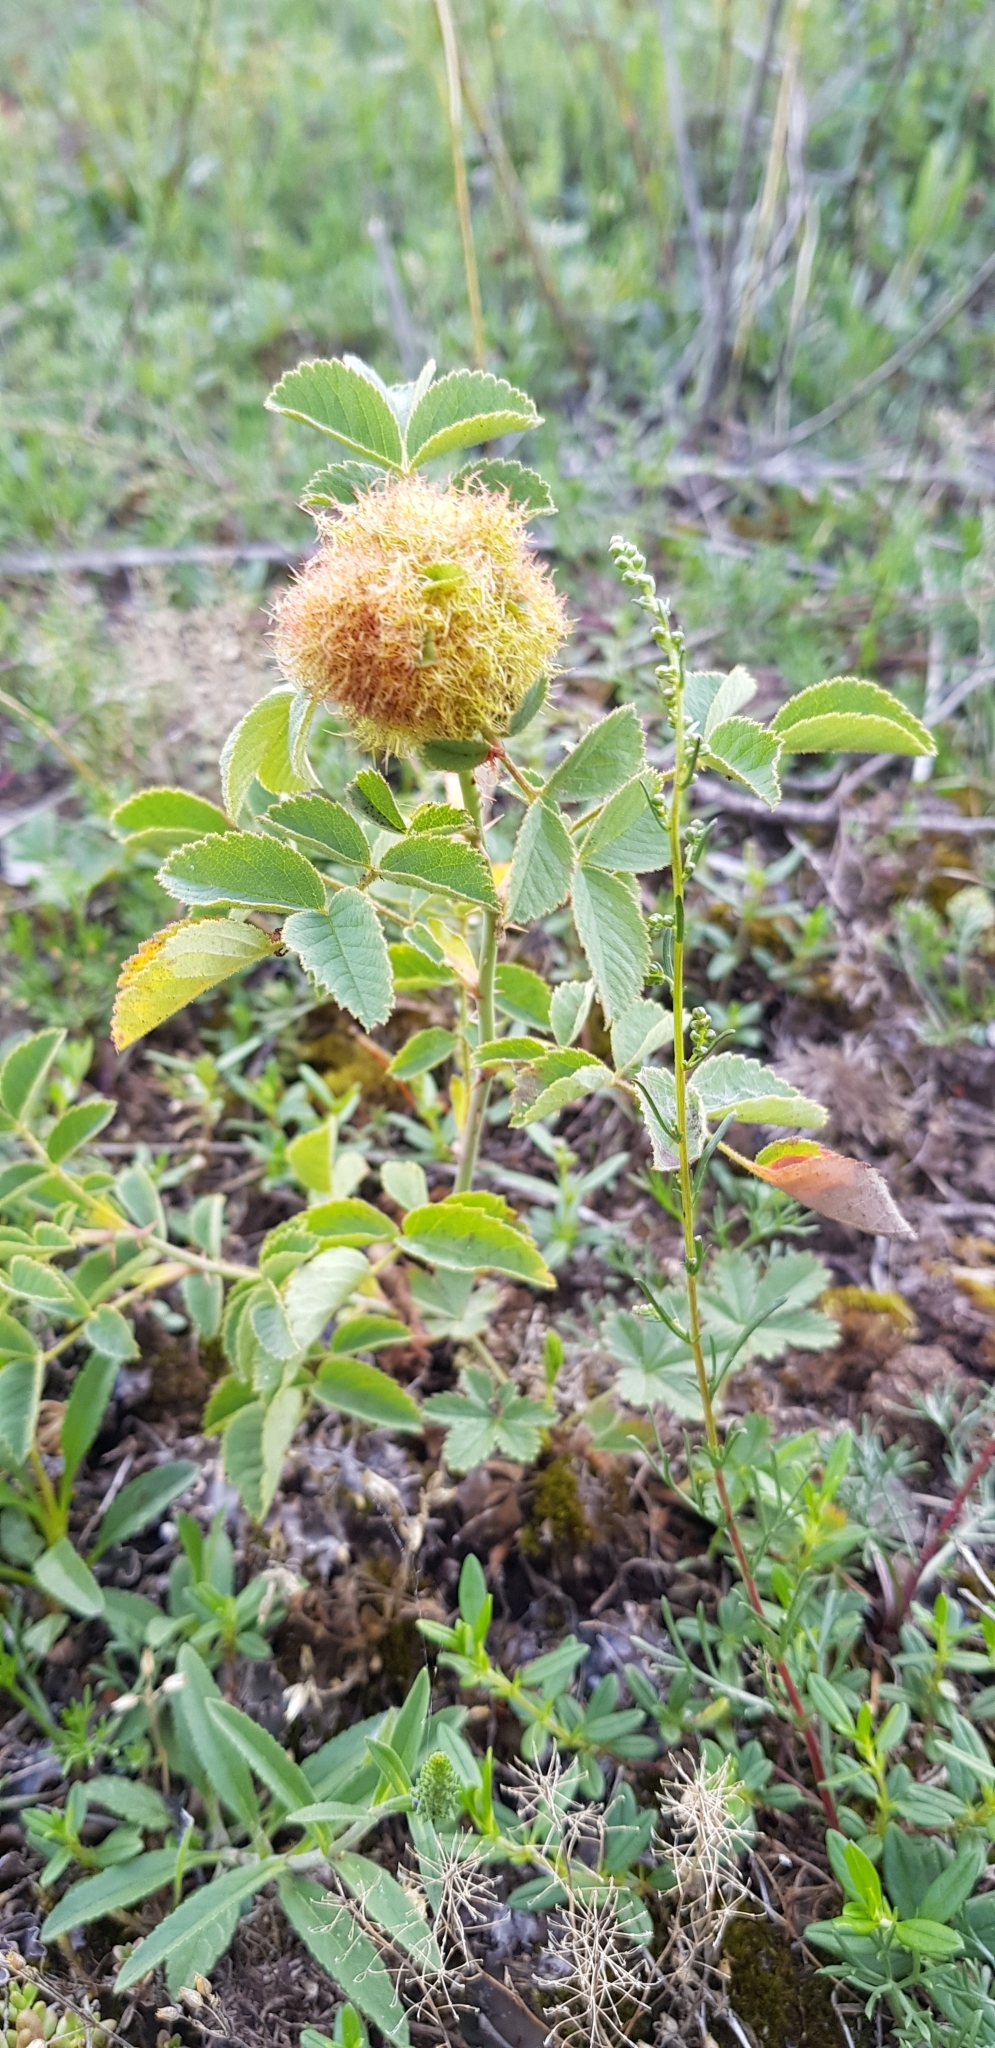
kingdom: Animalia
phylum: Arthropoda
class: Insecta
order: Hymenoptera
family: Cynipidae
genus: Diplolepis
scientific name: Diplolepis rosae
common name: Bedeguar gall
